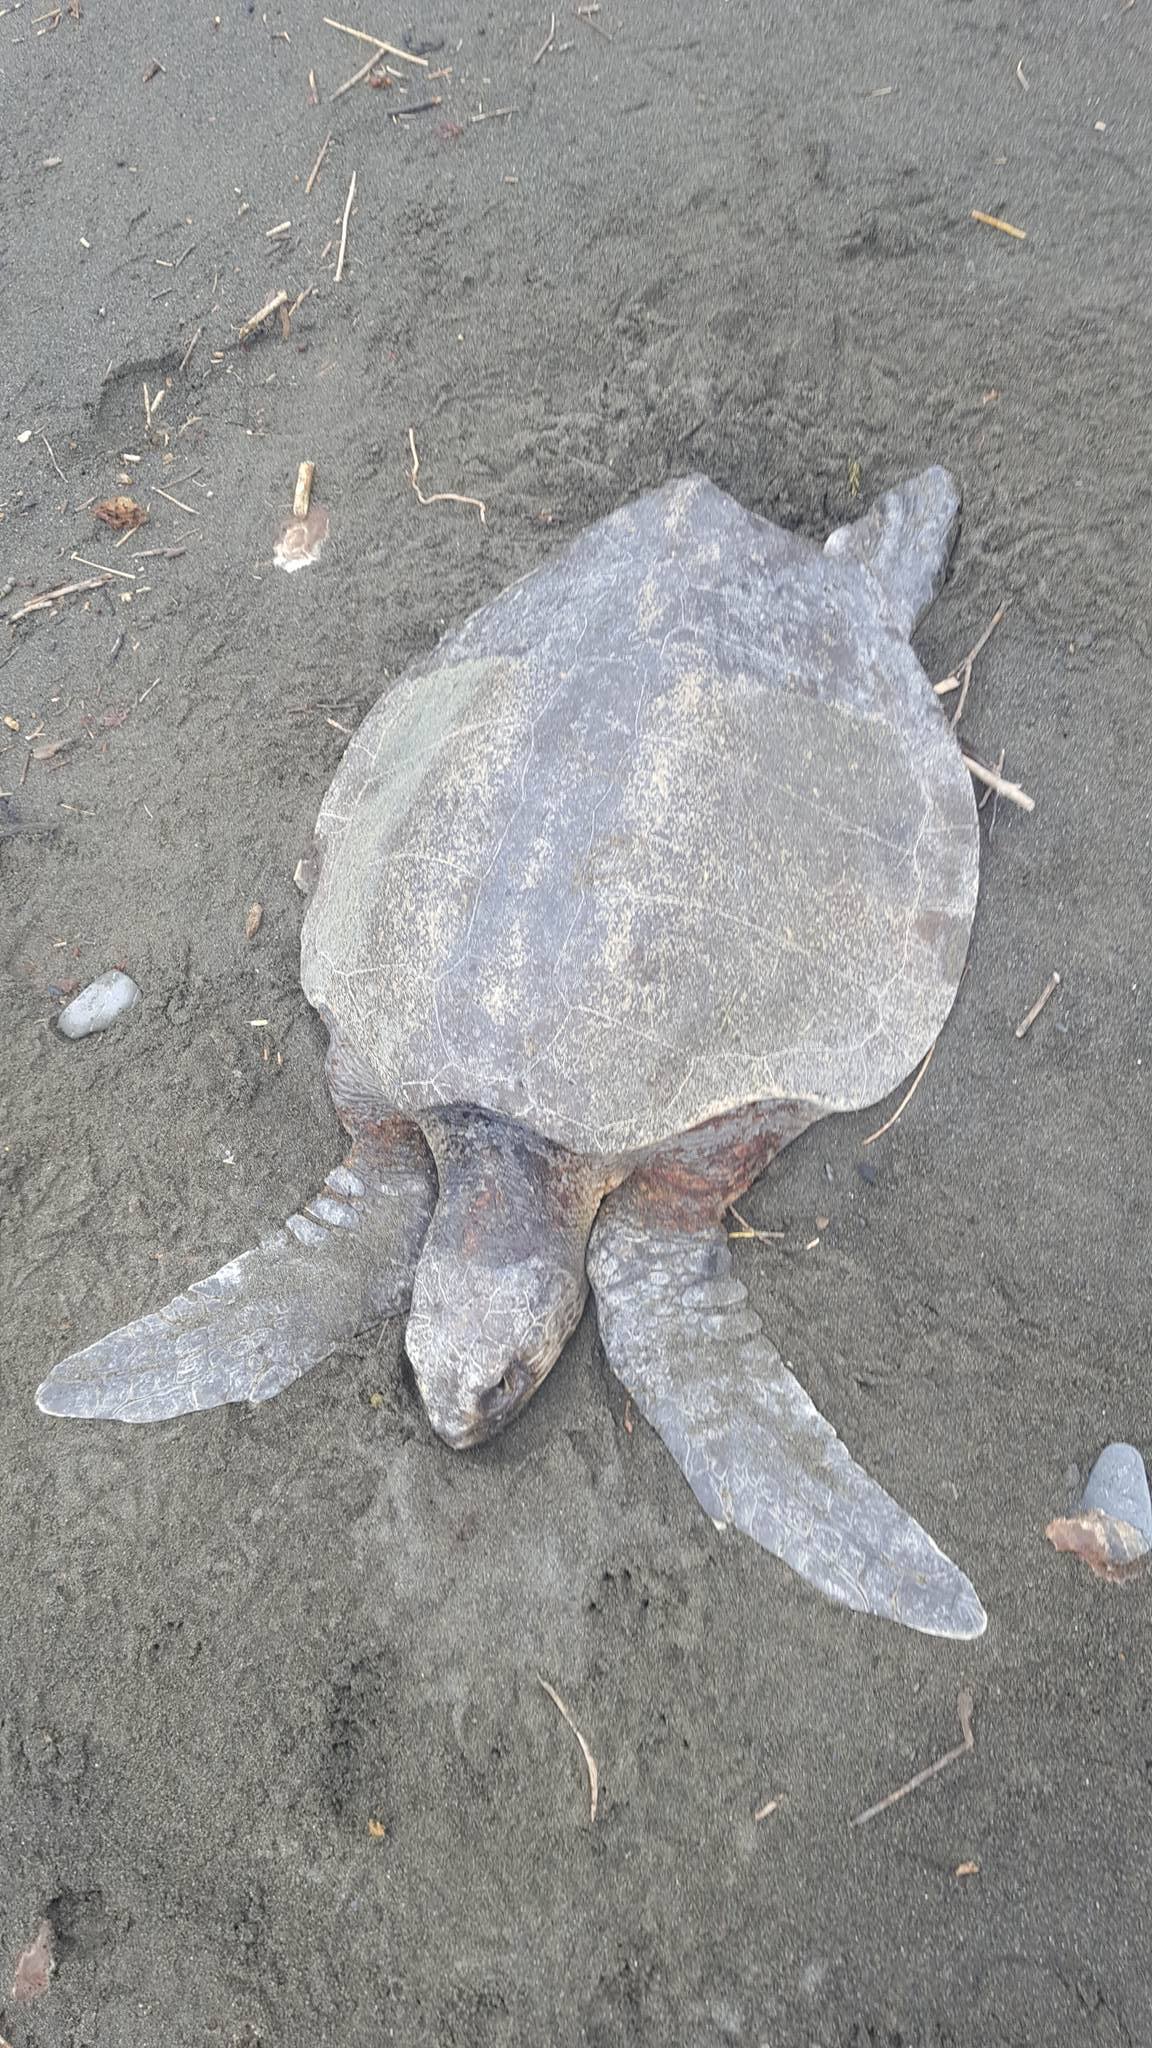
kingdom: Animalia
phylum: Chordata
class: Testudines
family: Cheloniidae
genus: Lepidochelys
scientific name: Lepidochelys olivacea
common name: Olive ridley
